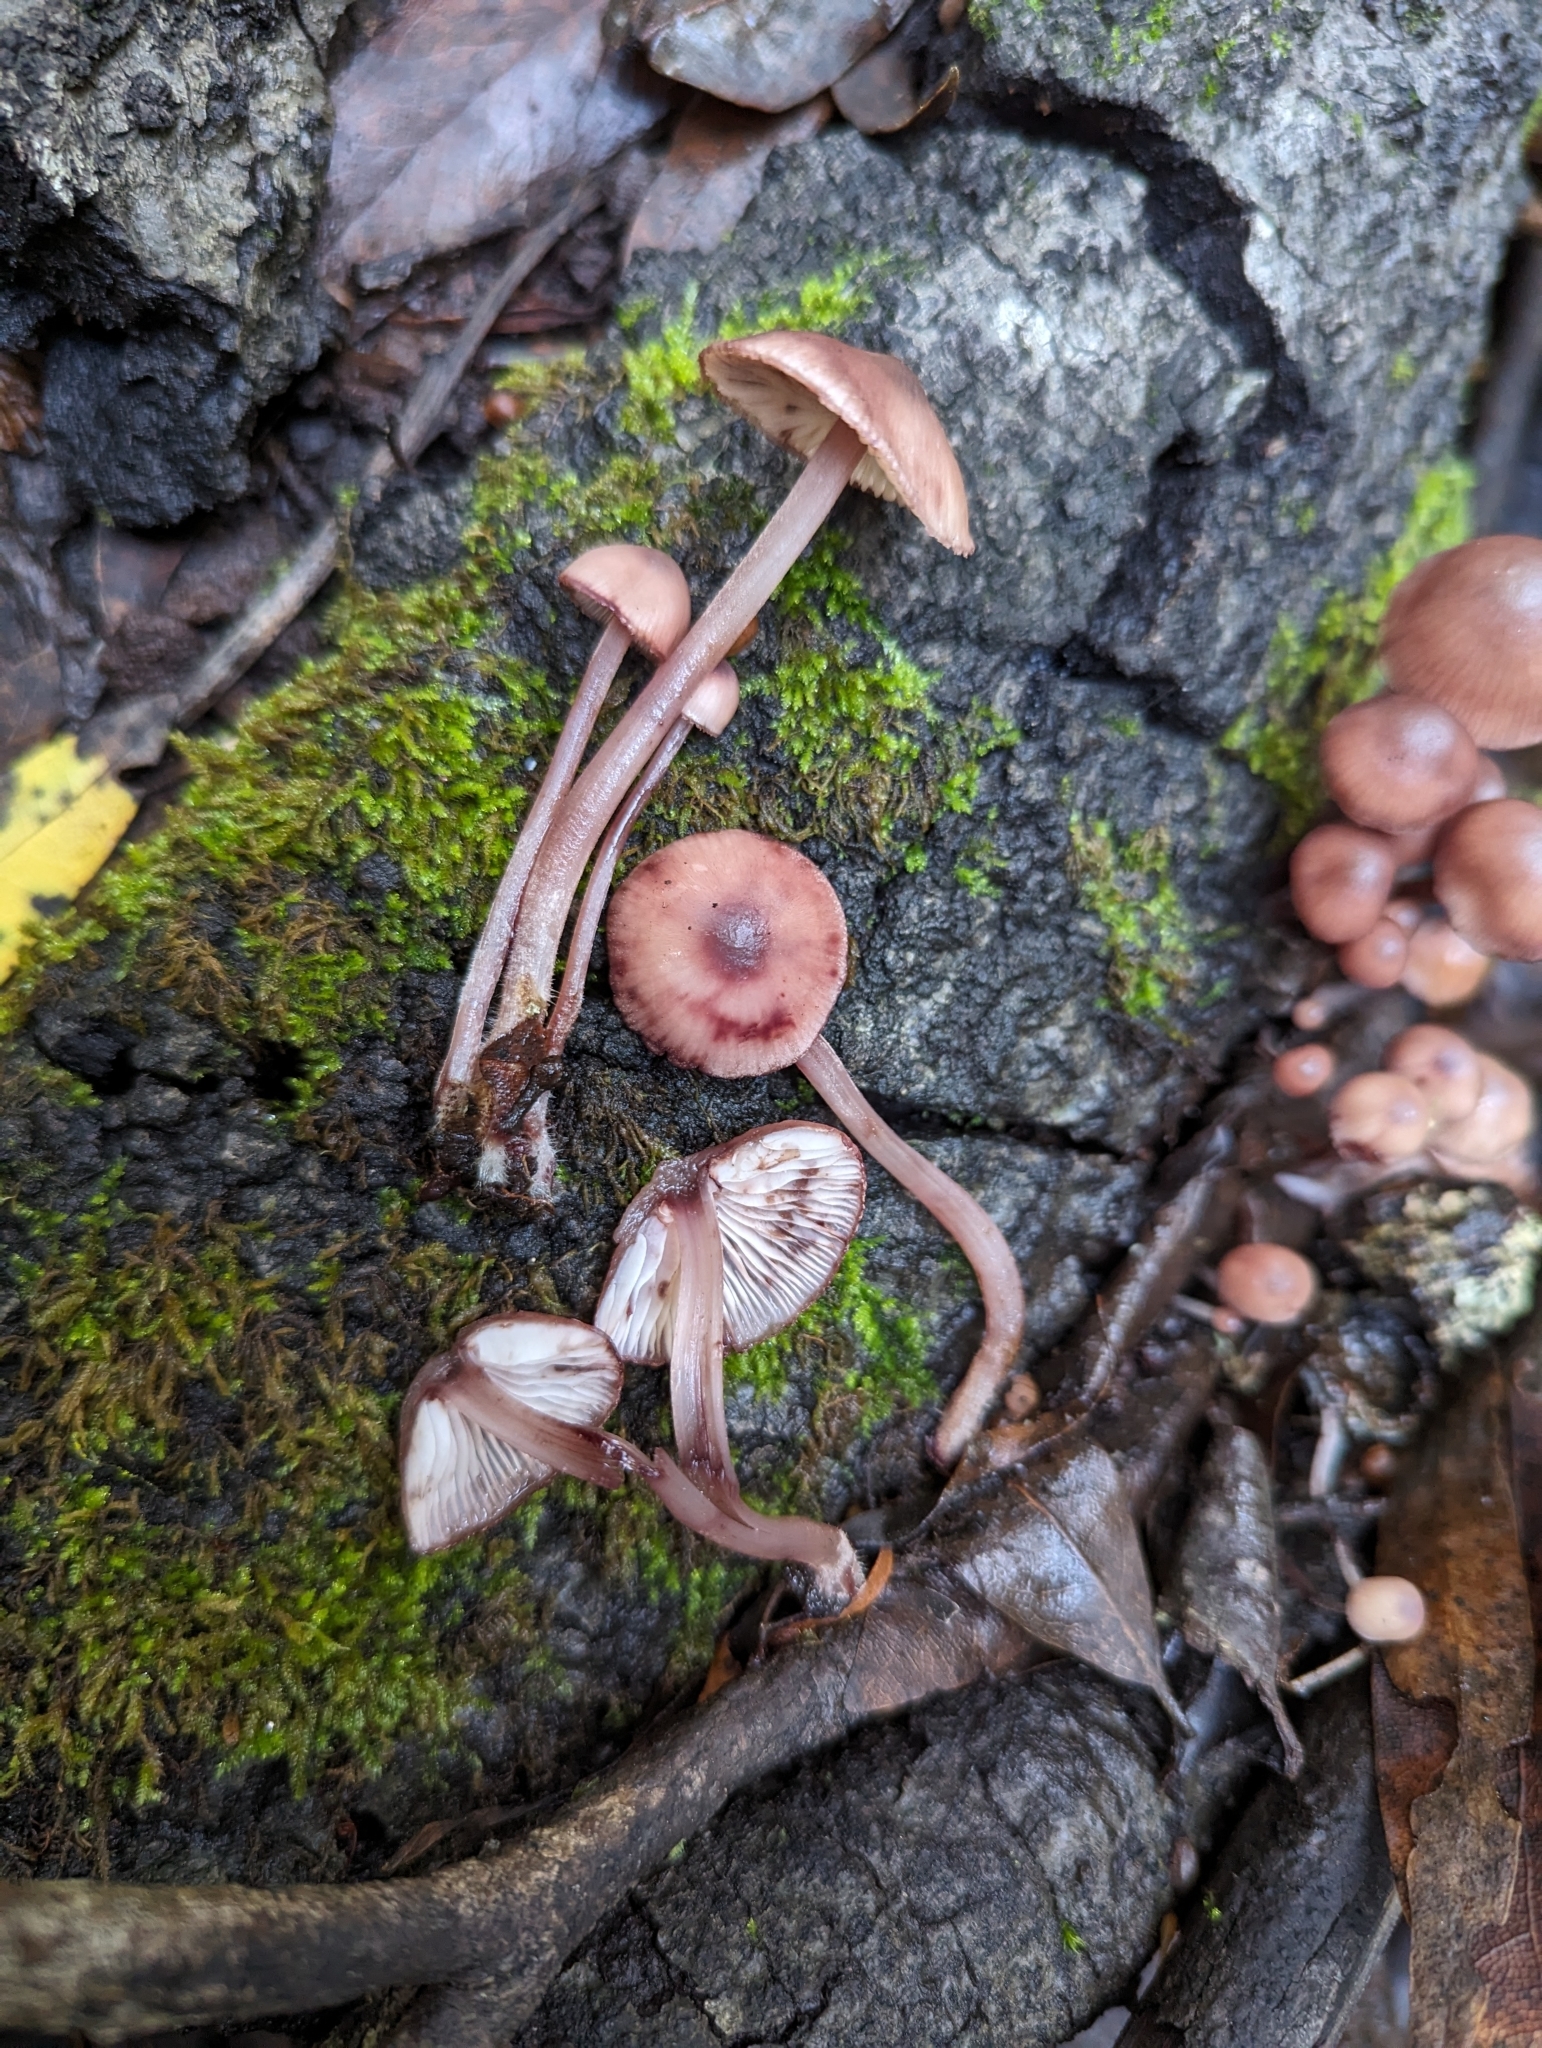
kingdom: Fungi
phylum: Basidiomycota
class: Agaricomycetes
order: Agaricales
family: Mycenaceae
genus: Mycena
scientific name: Mycena haematopus
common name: Burgundydrop bonnet
